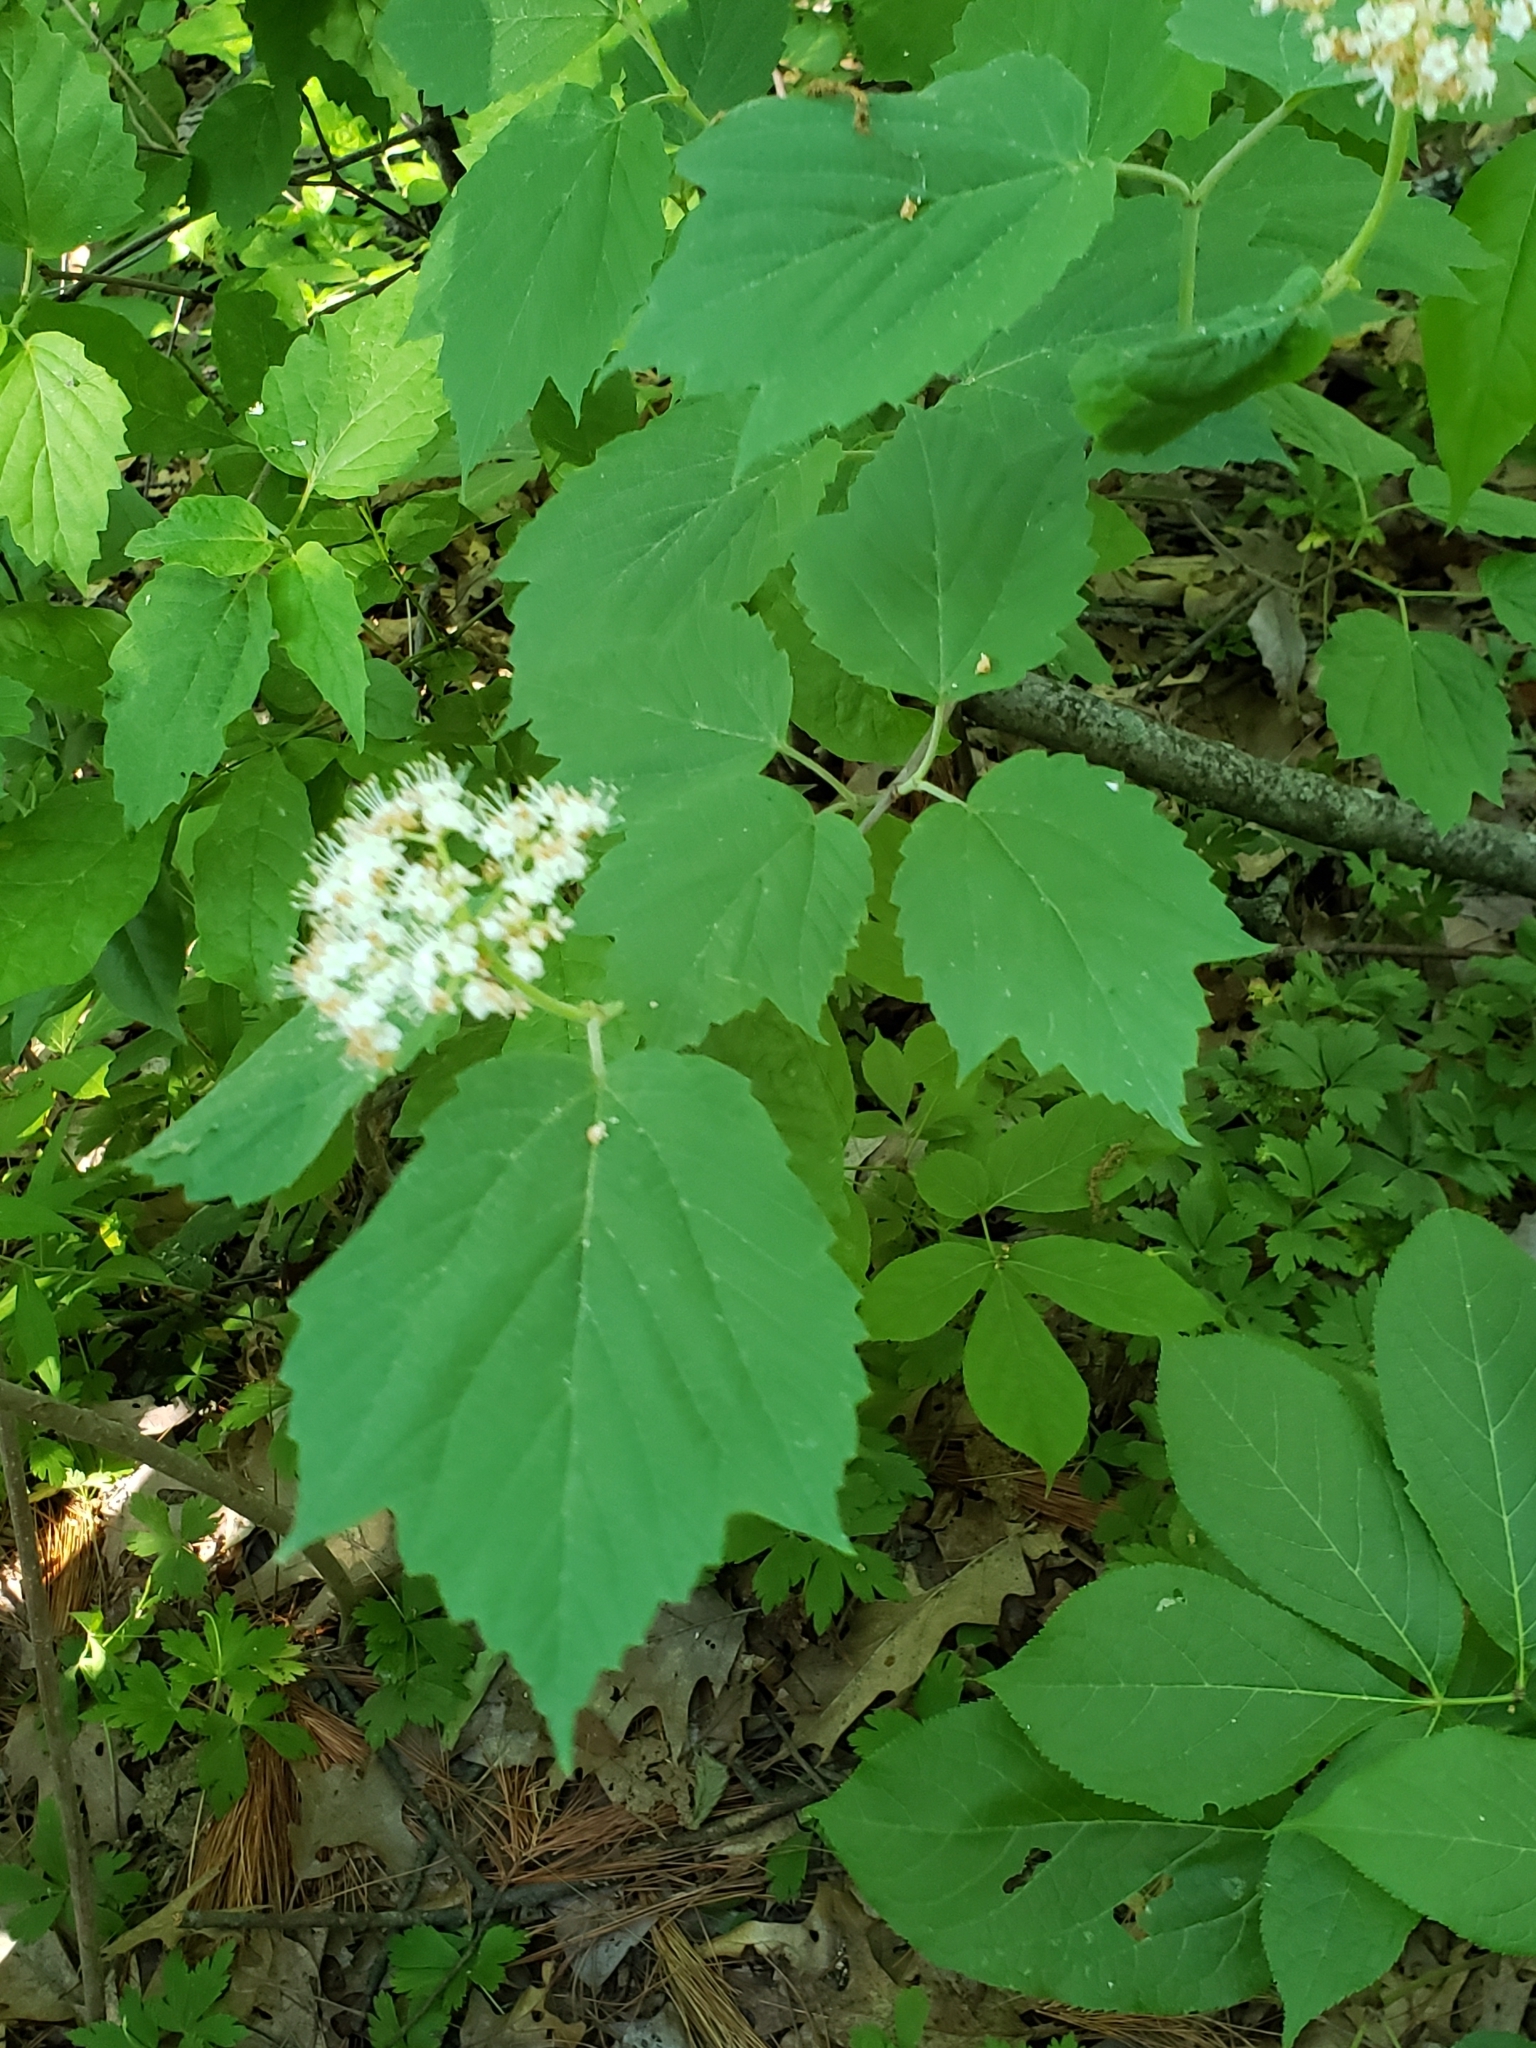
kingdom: Plantae
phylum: Tracheophyta
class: Magnoliopsida
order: Dipsacales
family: Viburnaceae
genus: Viburnum
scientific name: Viburnum acerifolium
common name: Dockmackie
